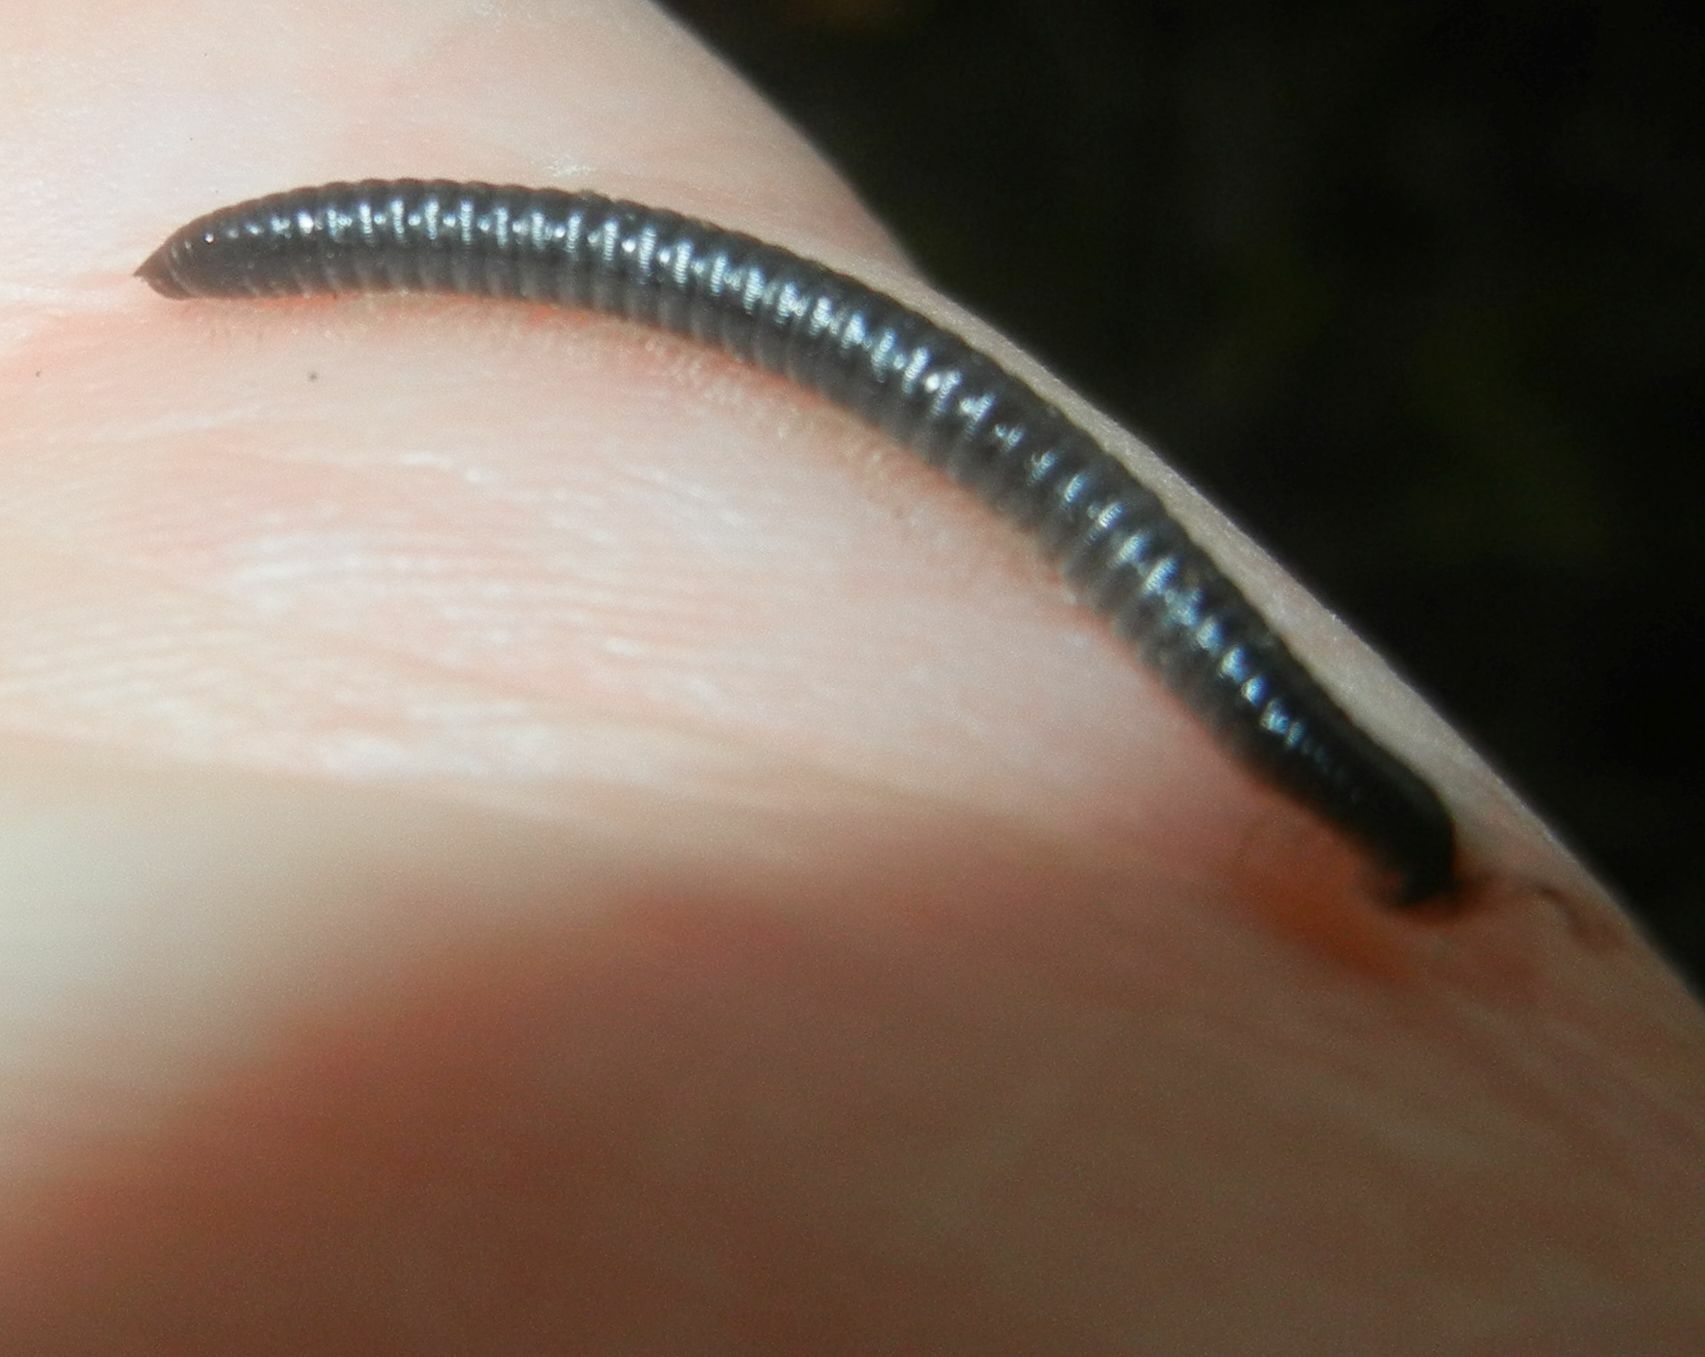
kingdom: Animalia
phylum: Arthropoda
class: Diplopoda
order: Julida
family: Julidae
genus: Tachypodoiulus
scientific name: Tachypodoiulus niger
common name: White-legged snake millipede
